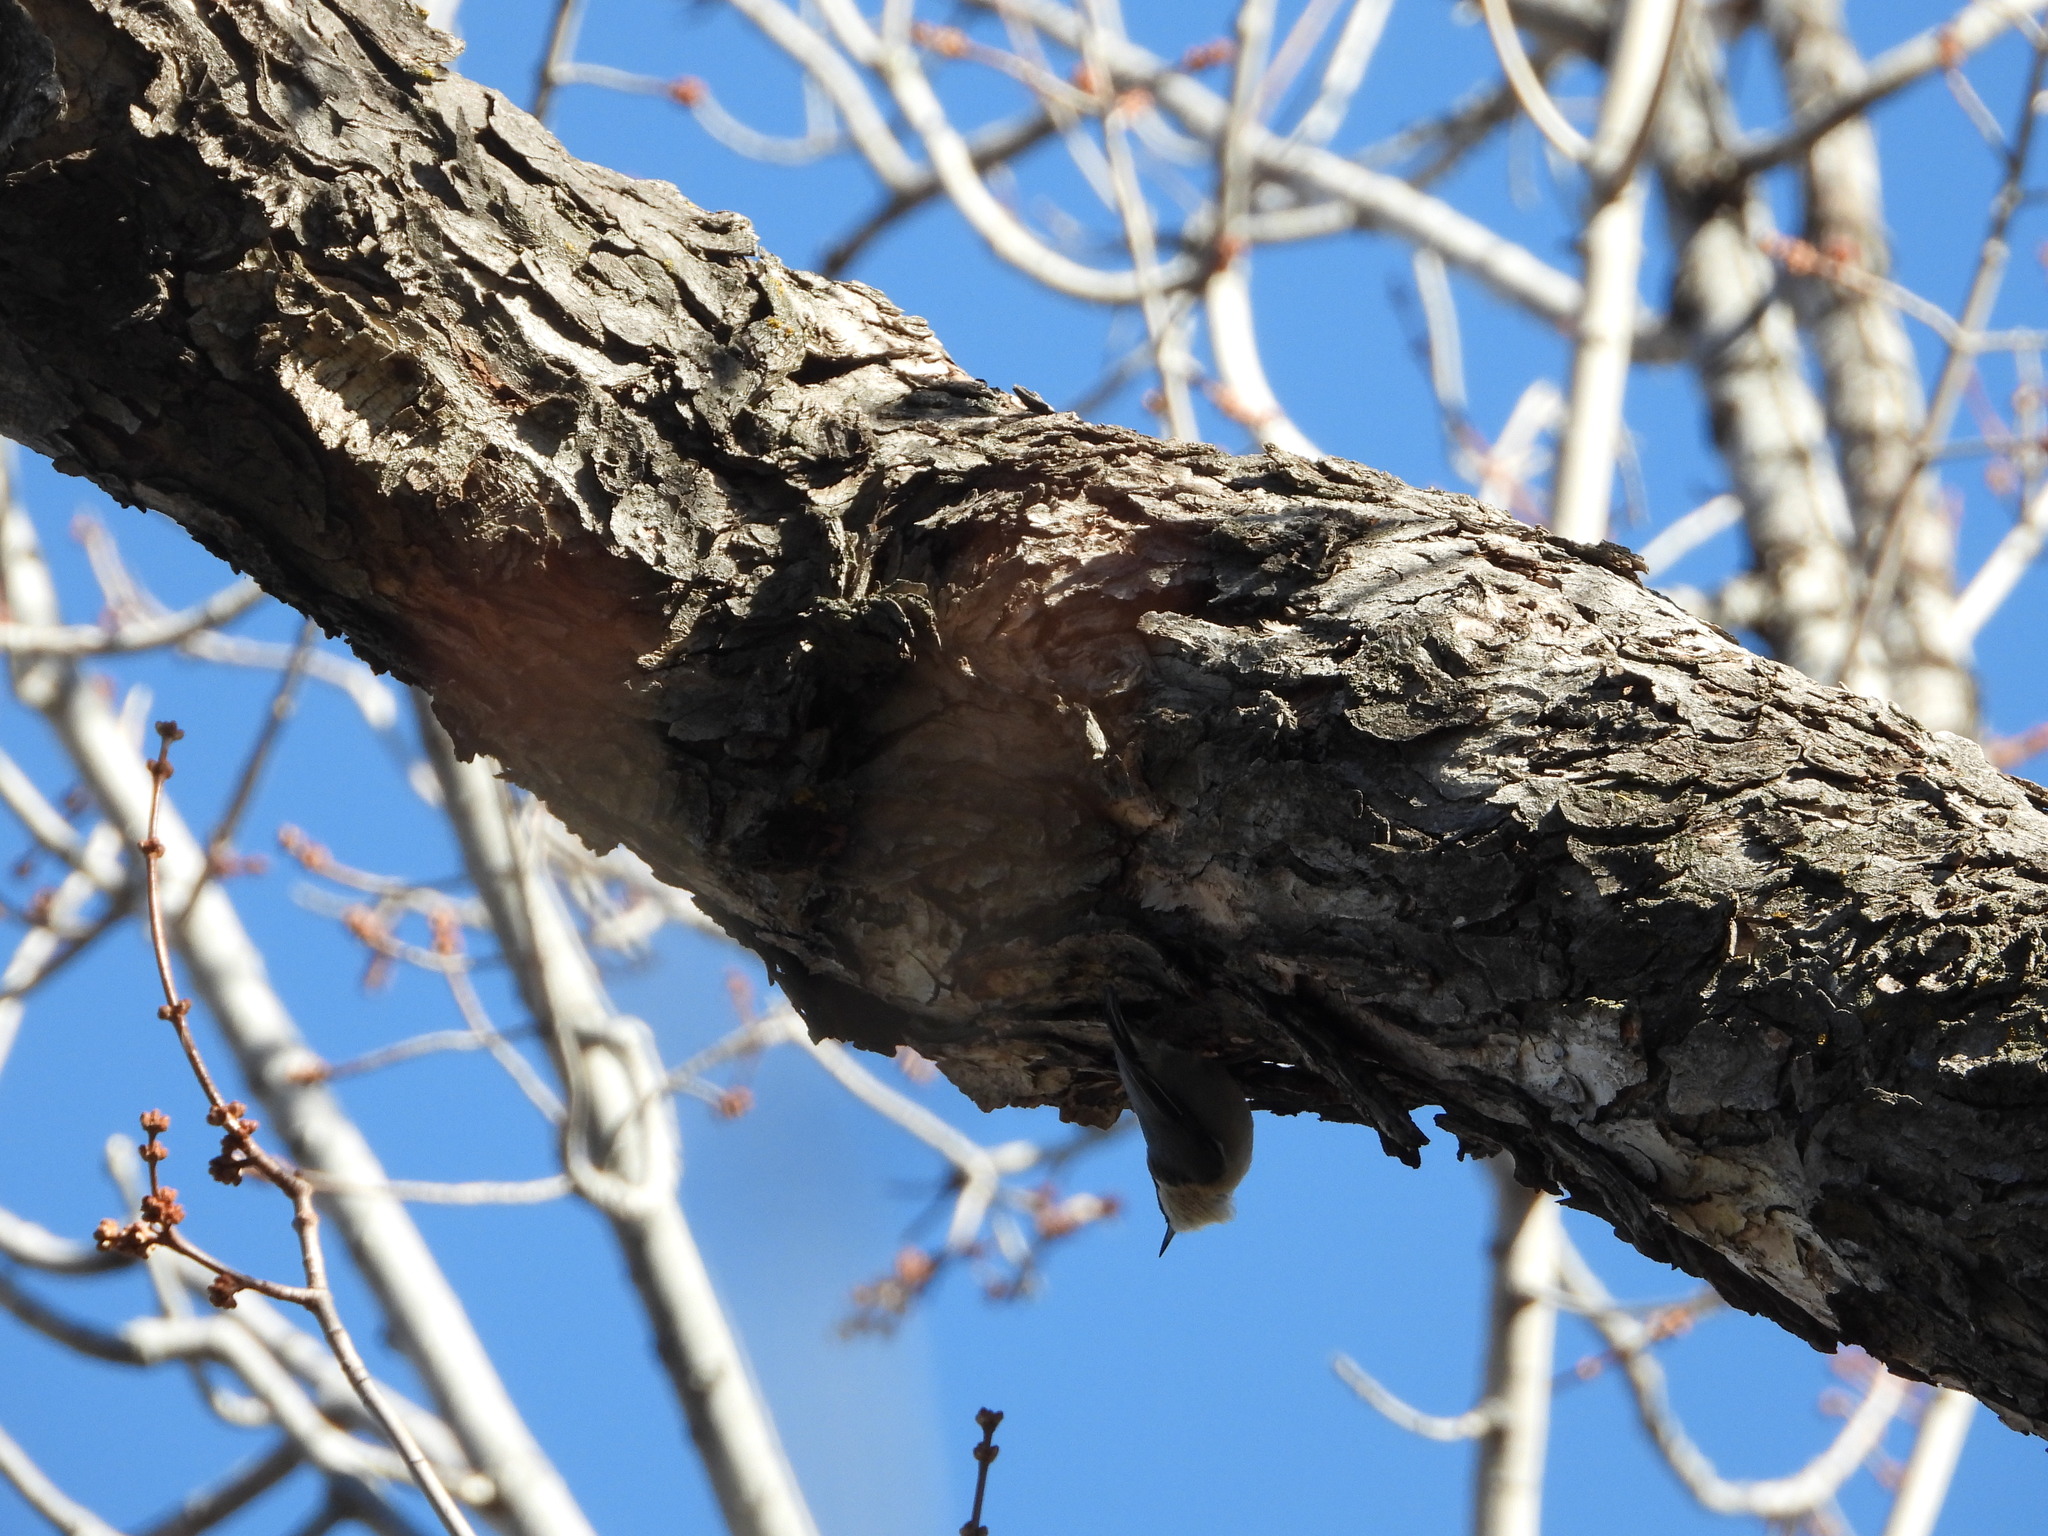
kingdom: Animalia
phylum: Chordata
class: Aves
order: Passeriformes
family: Sittidae
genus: Sitta
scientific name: Sitta pygmaea
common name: Pygmy nuthatch
